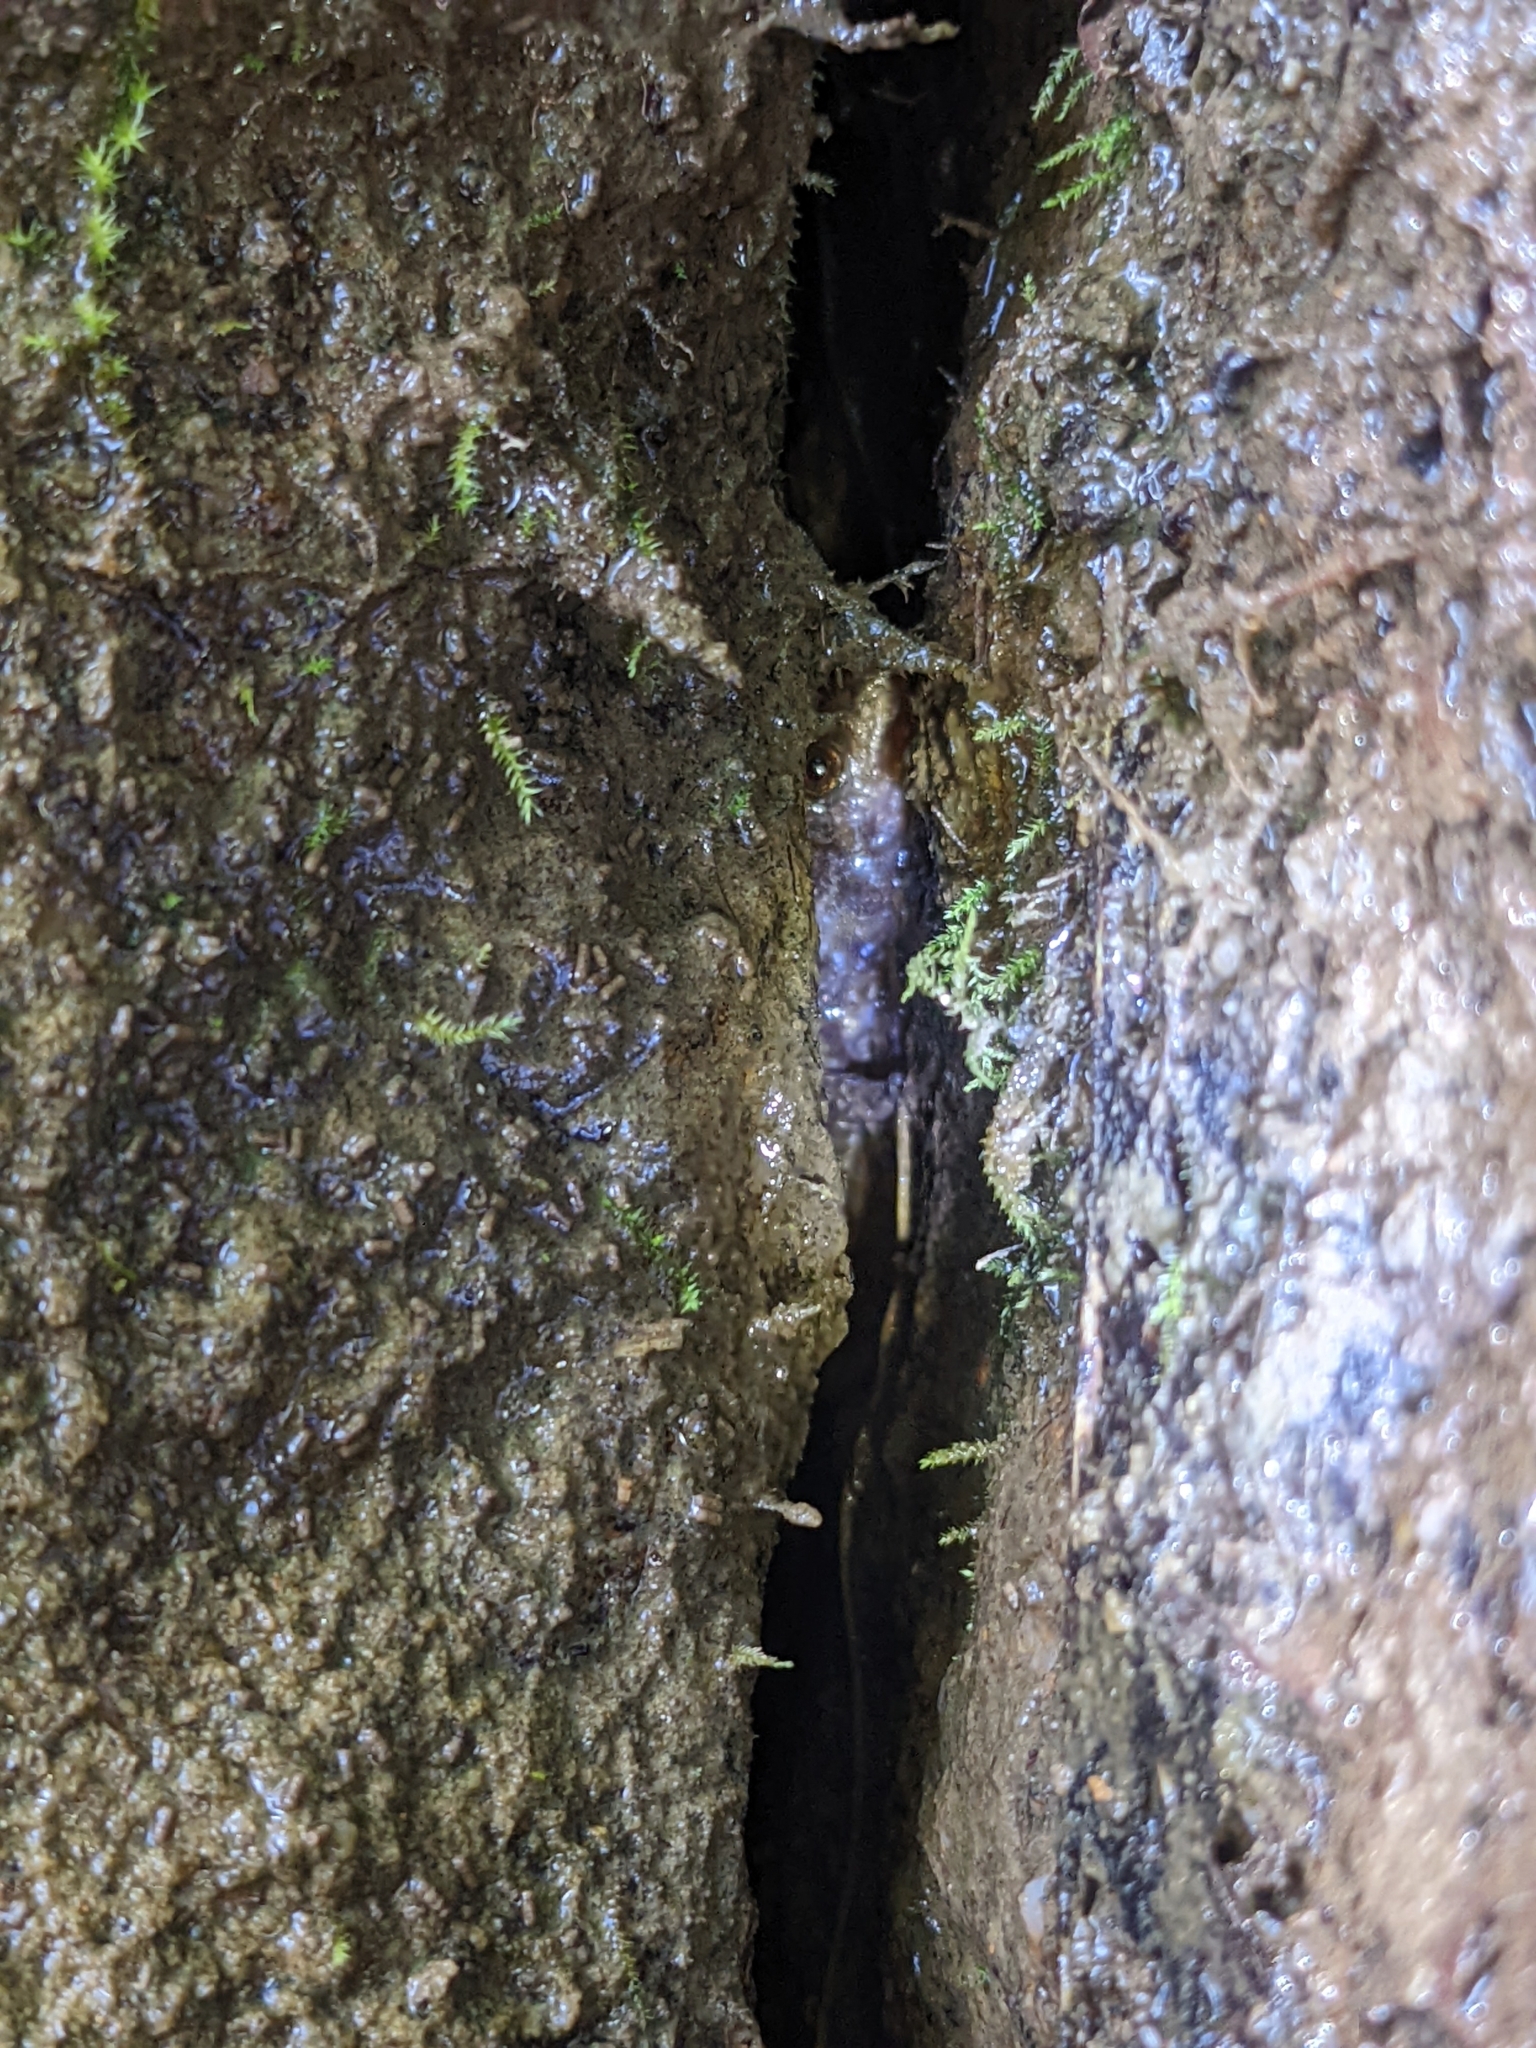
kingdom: Animalia
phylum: Chordata
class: Amphibia
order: Caudata
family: Plethodontidae
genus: Desmognathus
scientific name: Desmognathus monticola
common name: Seal salamander
